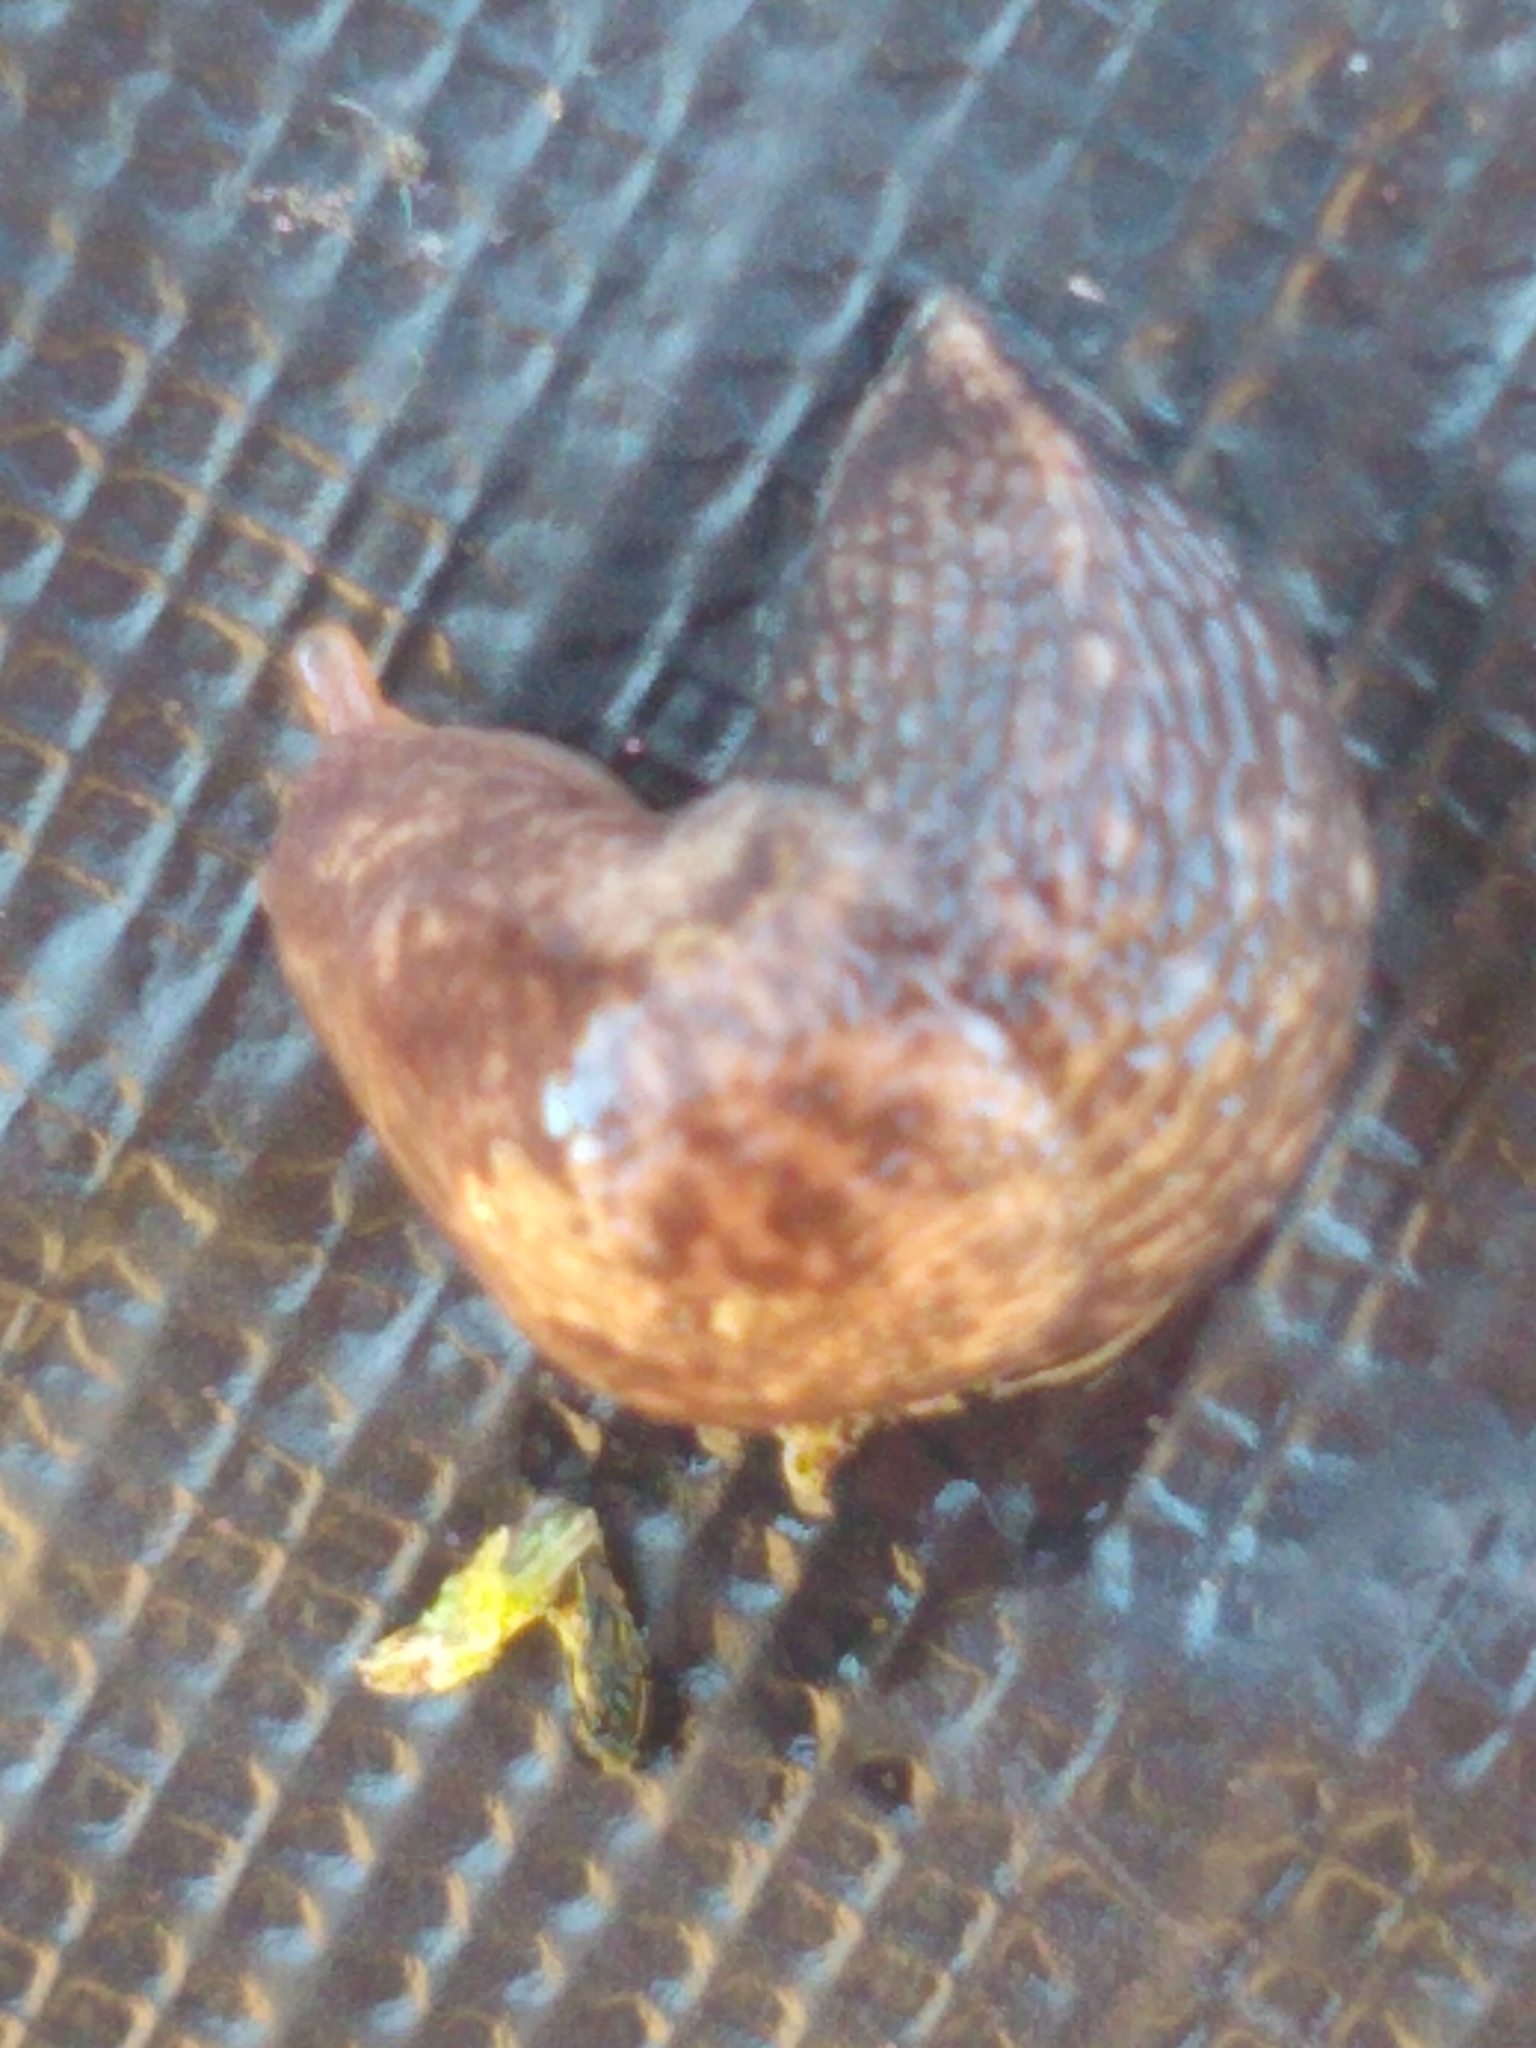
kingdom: Animalia
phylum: Mollusca
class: Gastropoda
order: Stylommatophora
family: Agriolimacidae
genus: Deroceras
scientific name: Deroceras reticulatum
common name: Gray field slug
